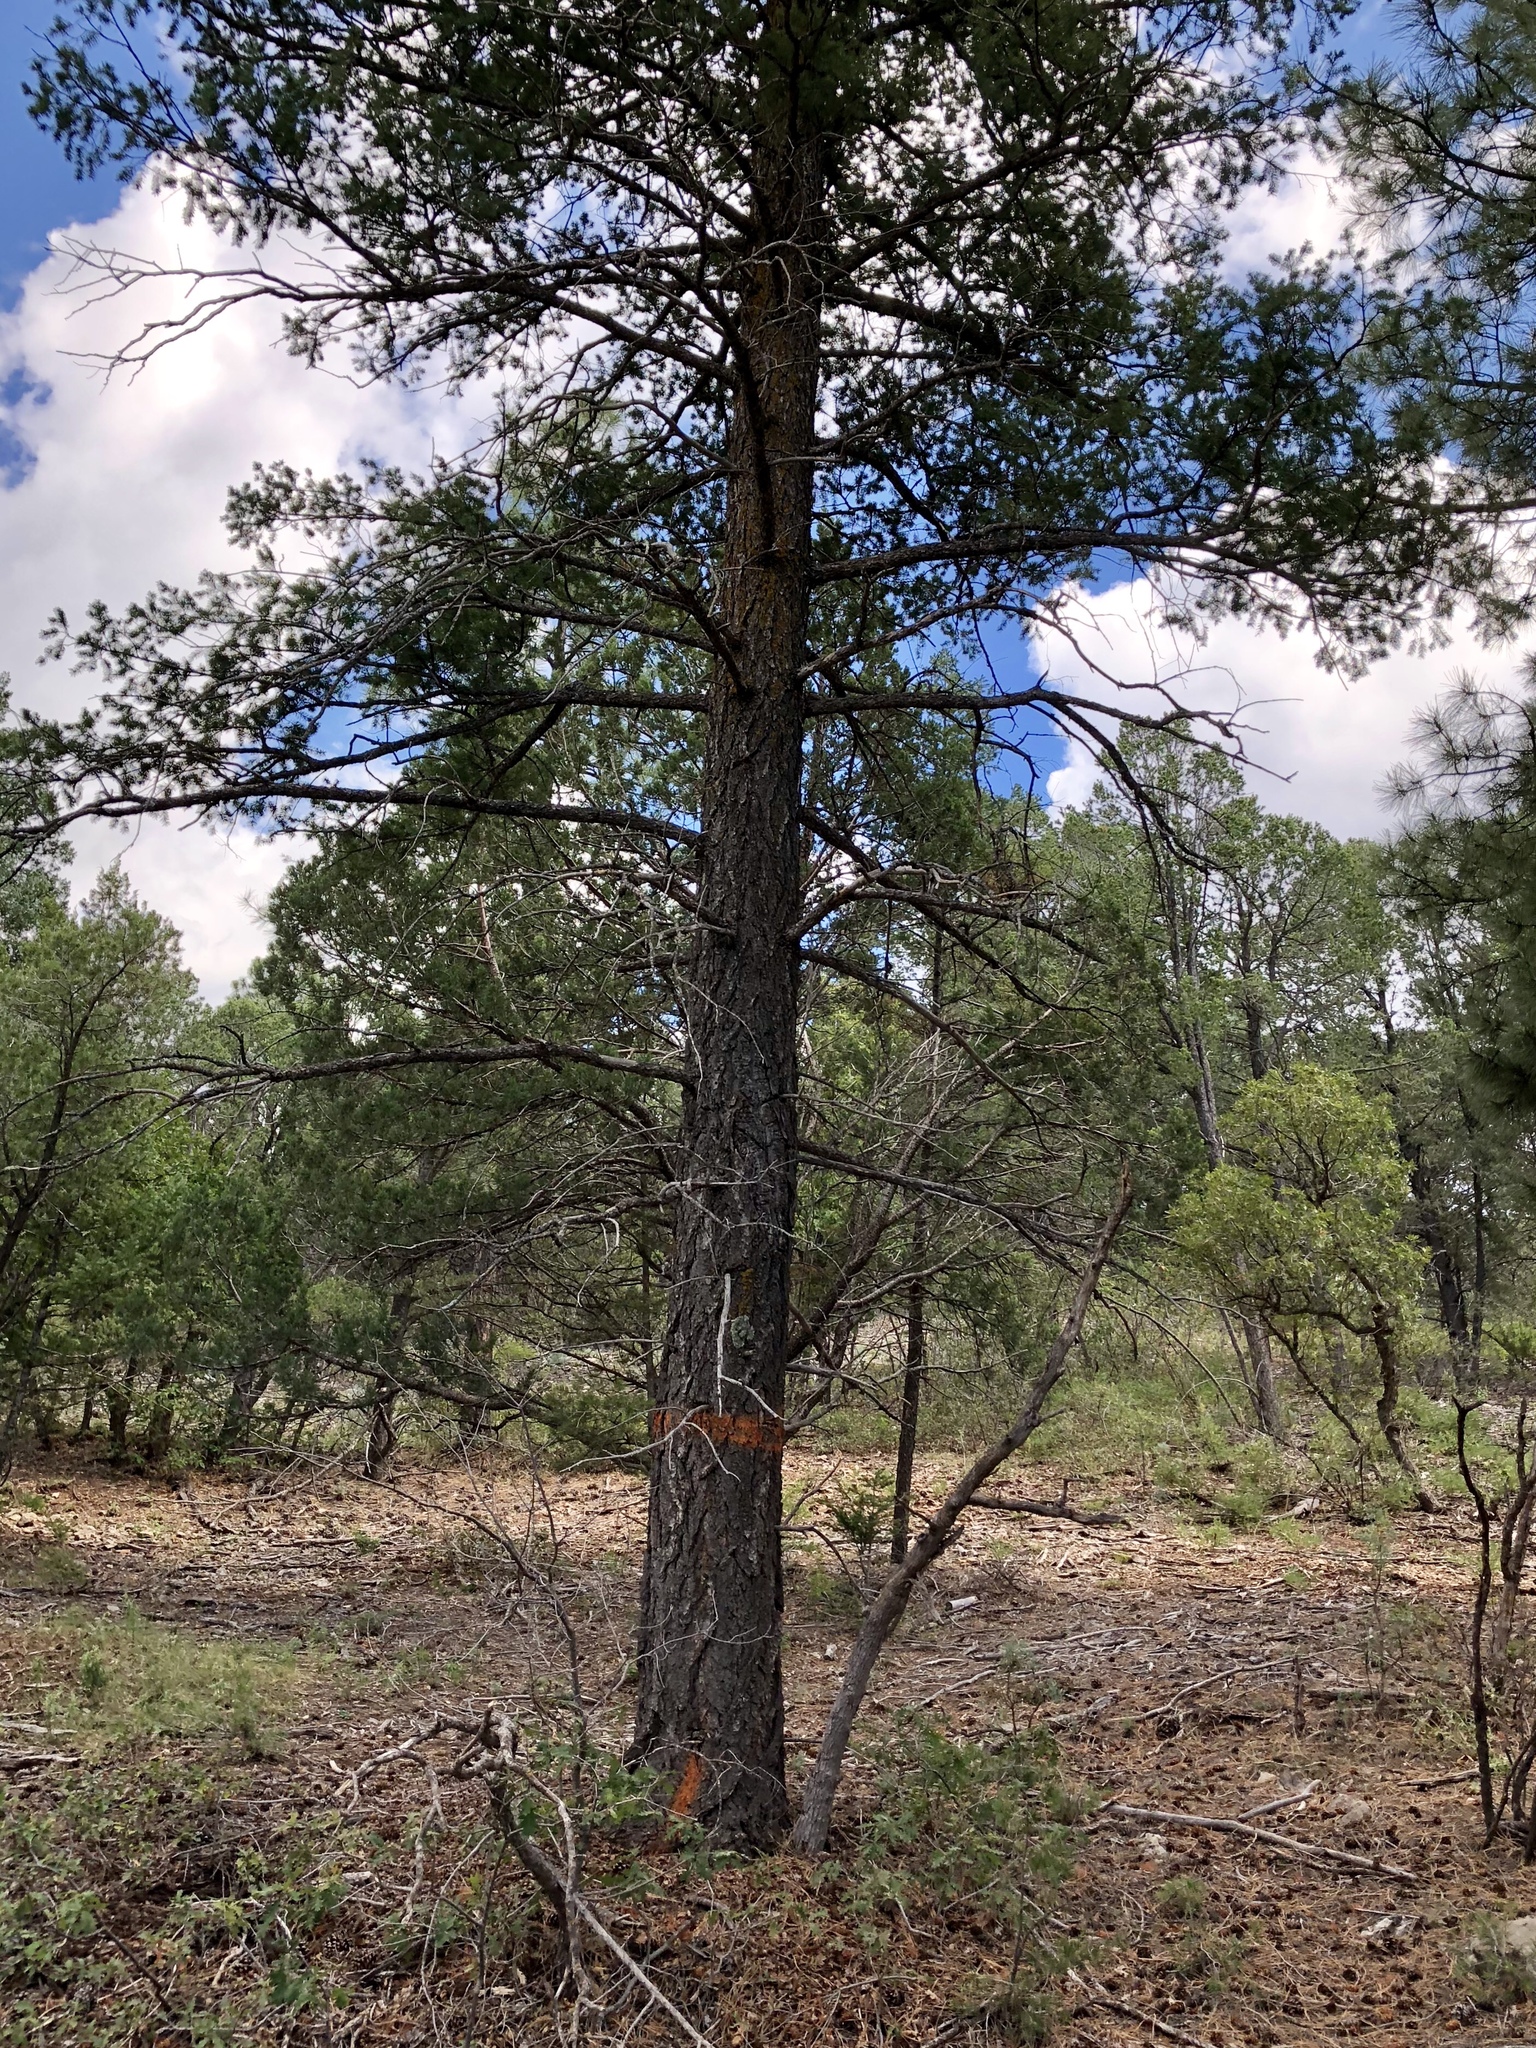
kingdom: Plantae
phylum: Tracheophyta
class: Pinopsida
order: Pinales
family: Pinaceae
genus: Pseudotsuga
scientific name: Pseudotsuga menziesii
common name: Douglas fir
